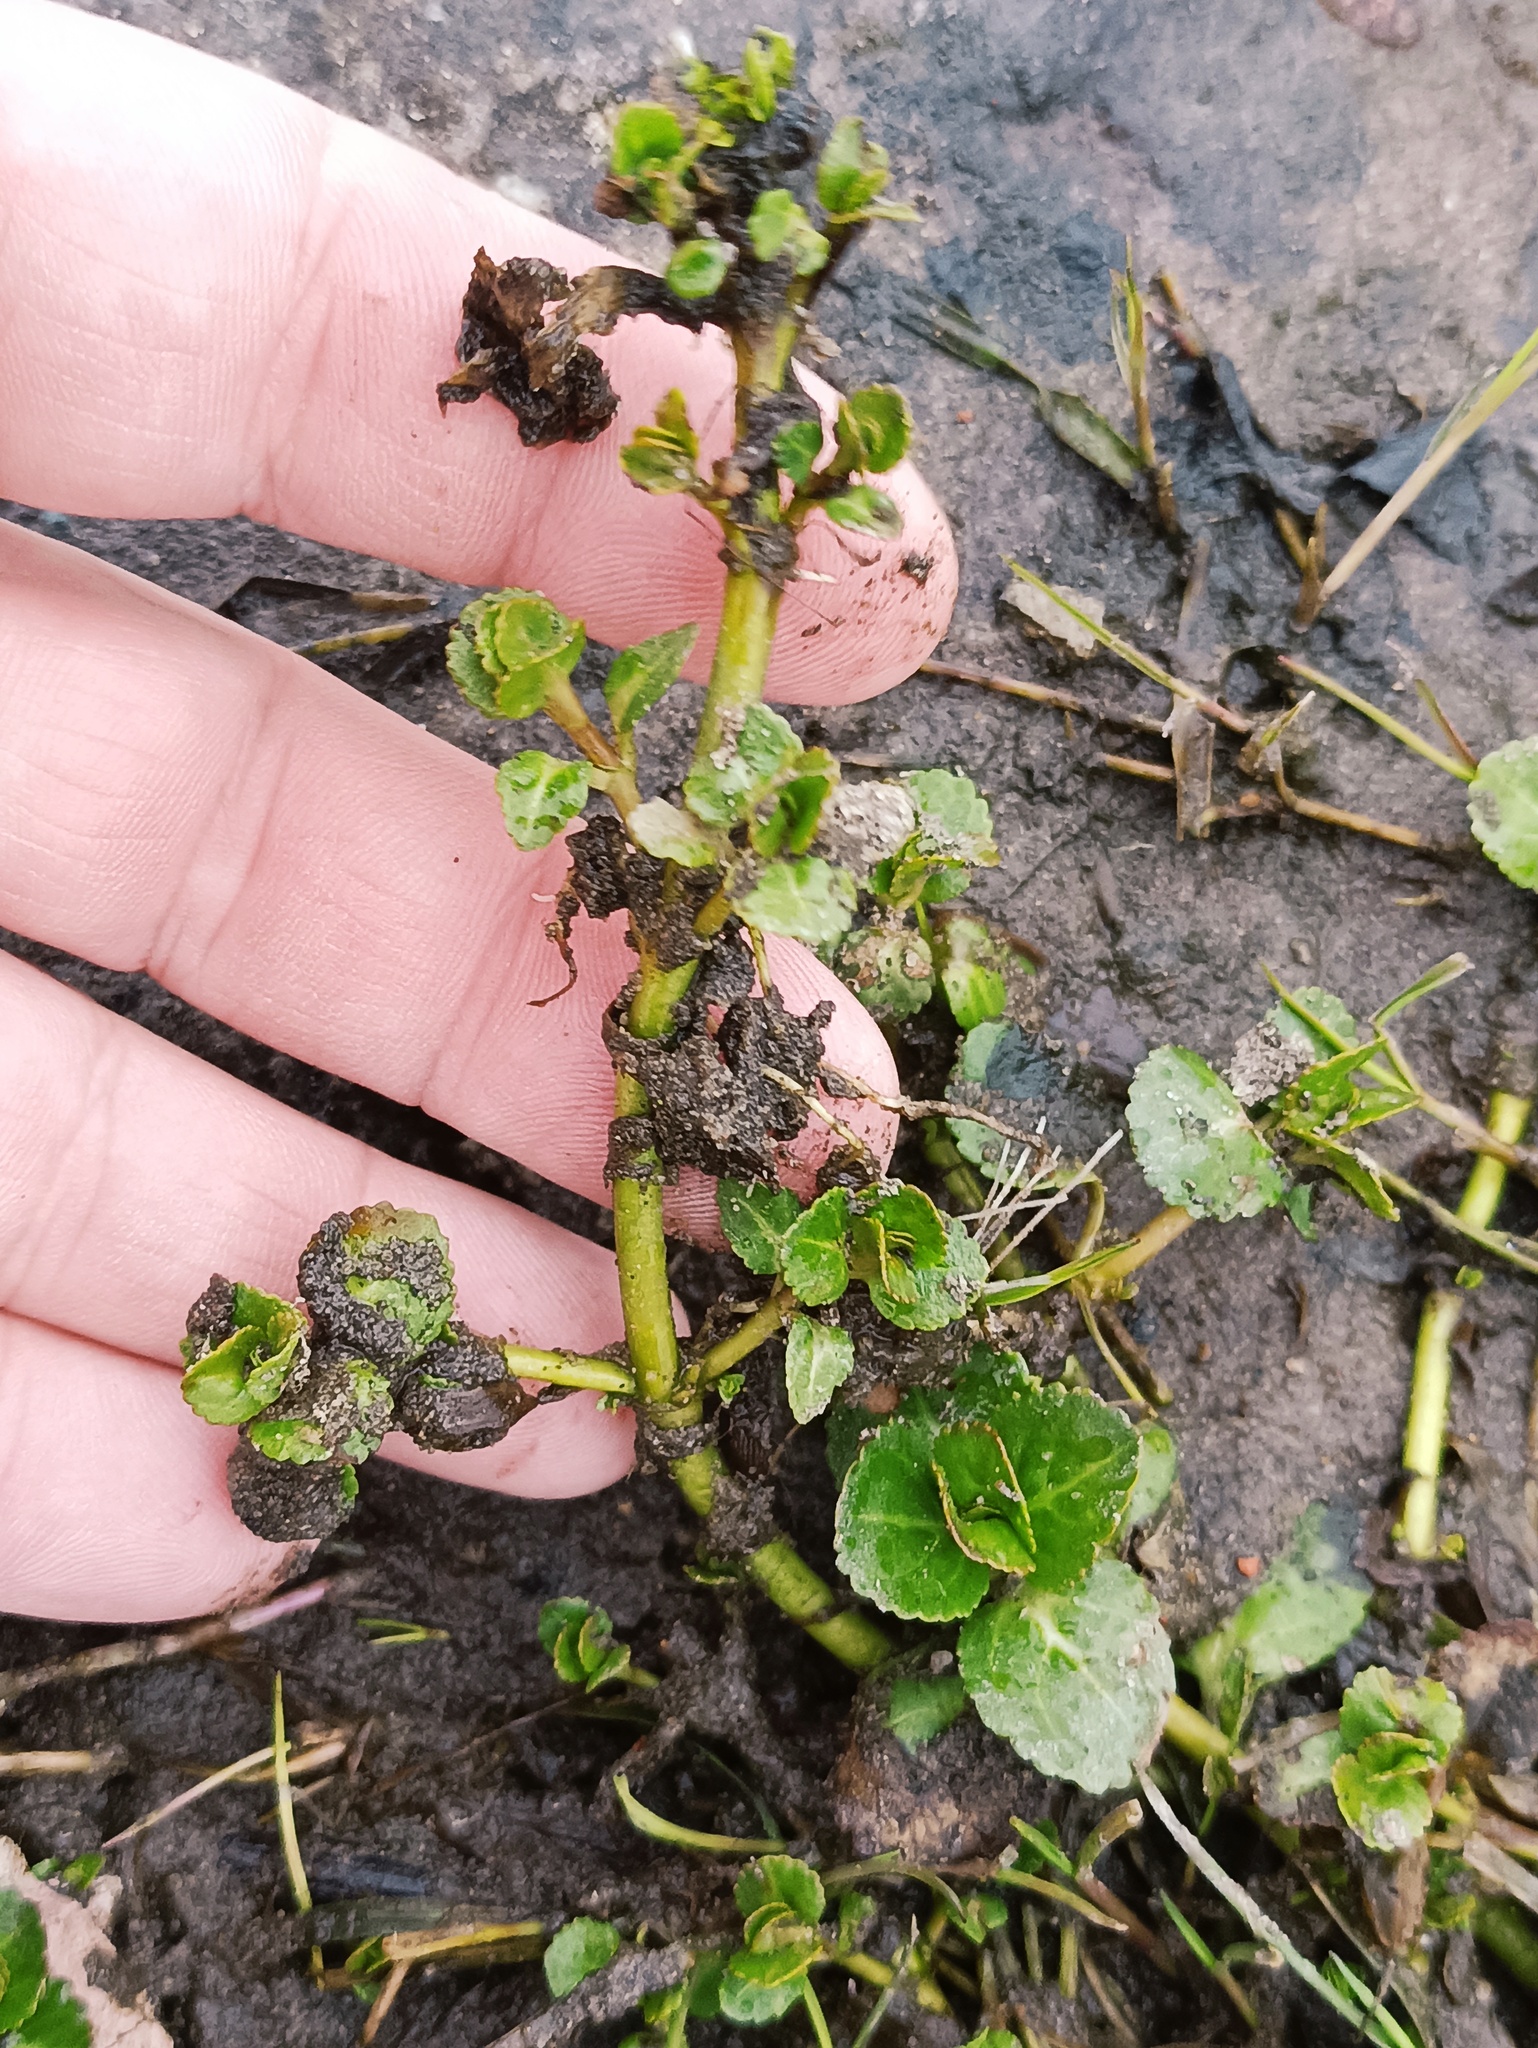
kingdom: Plantae
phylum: Tracheophyta
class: Magnoliopsida
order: Lamiales
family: Plantaginaceae
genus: Veronica
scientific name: Veronica beccabunga
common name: Brooklime
